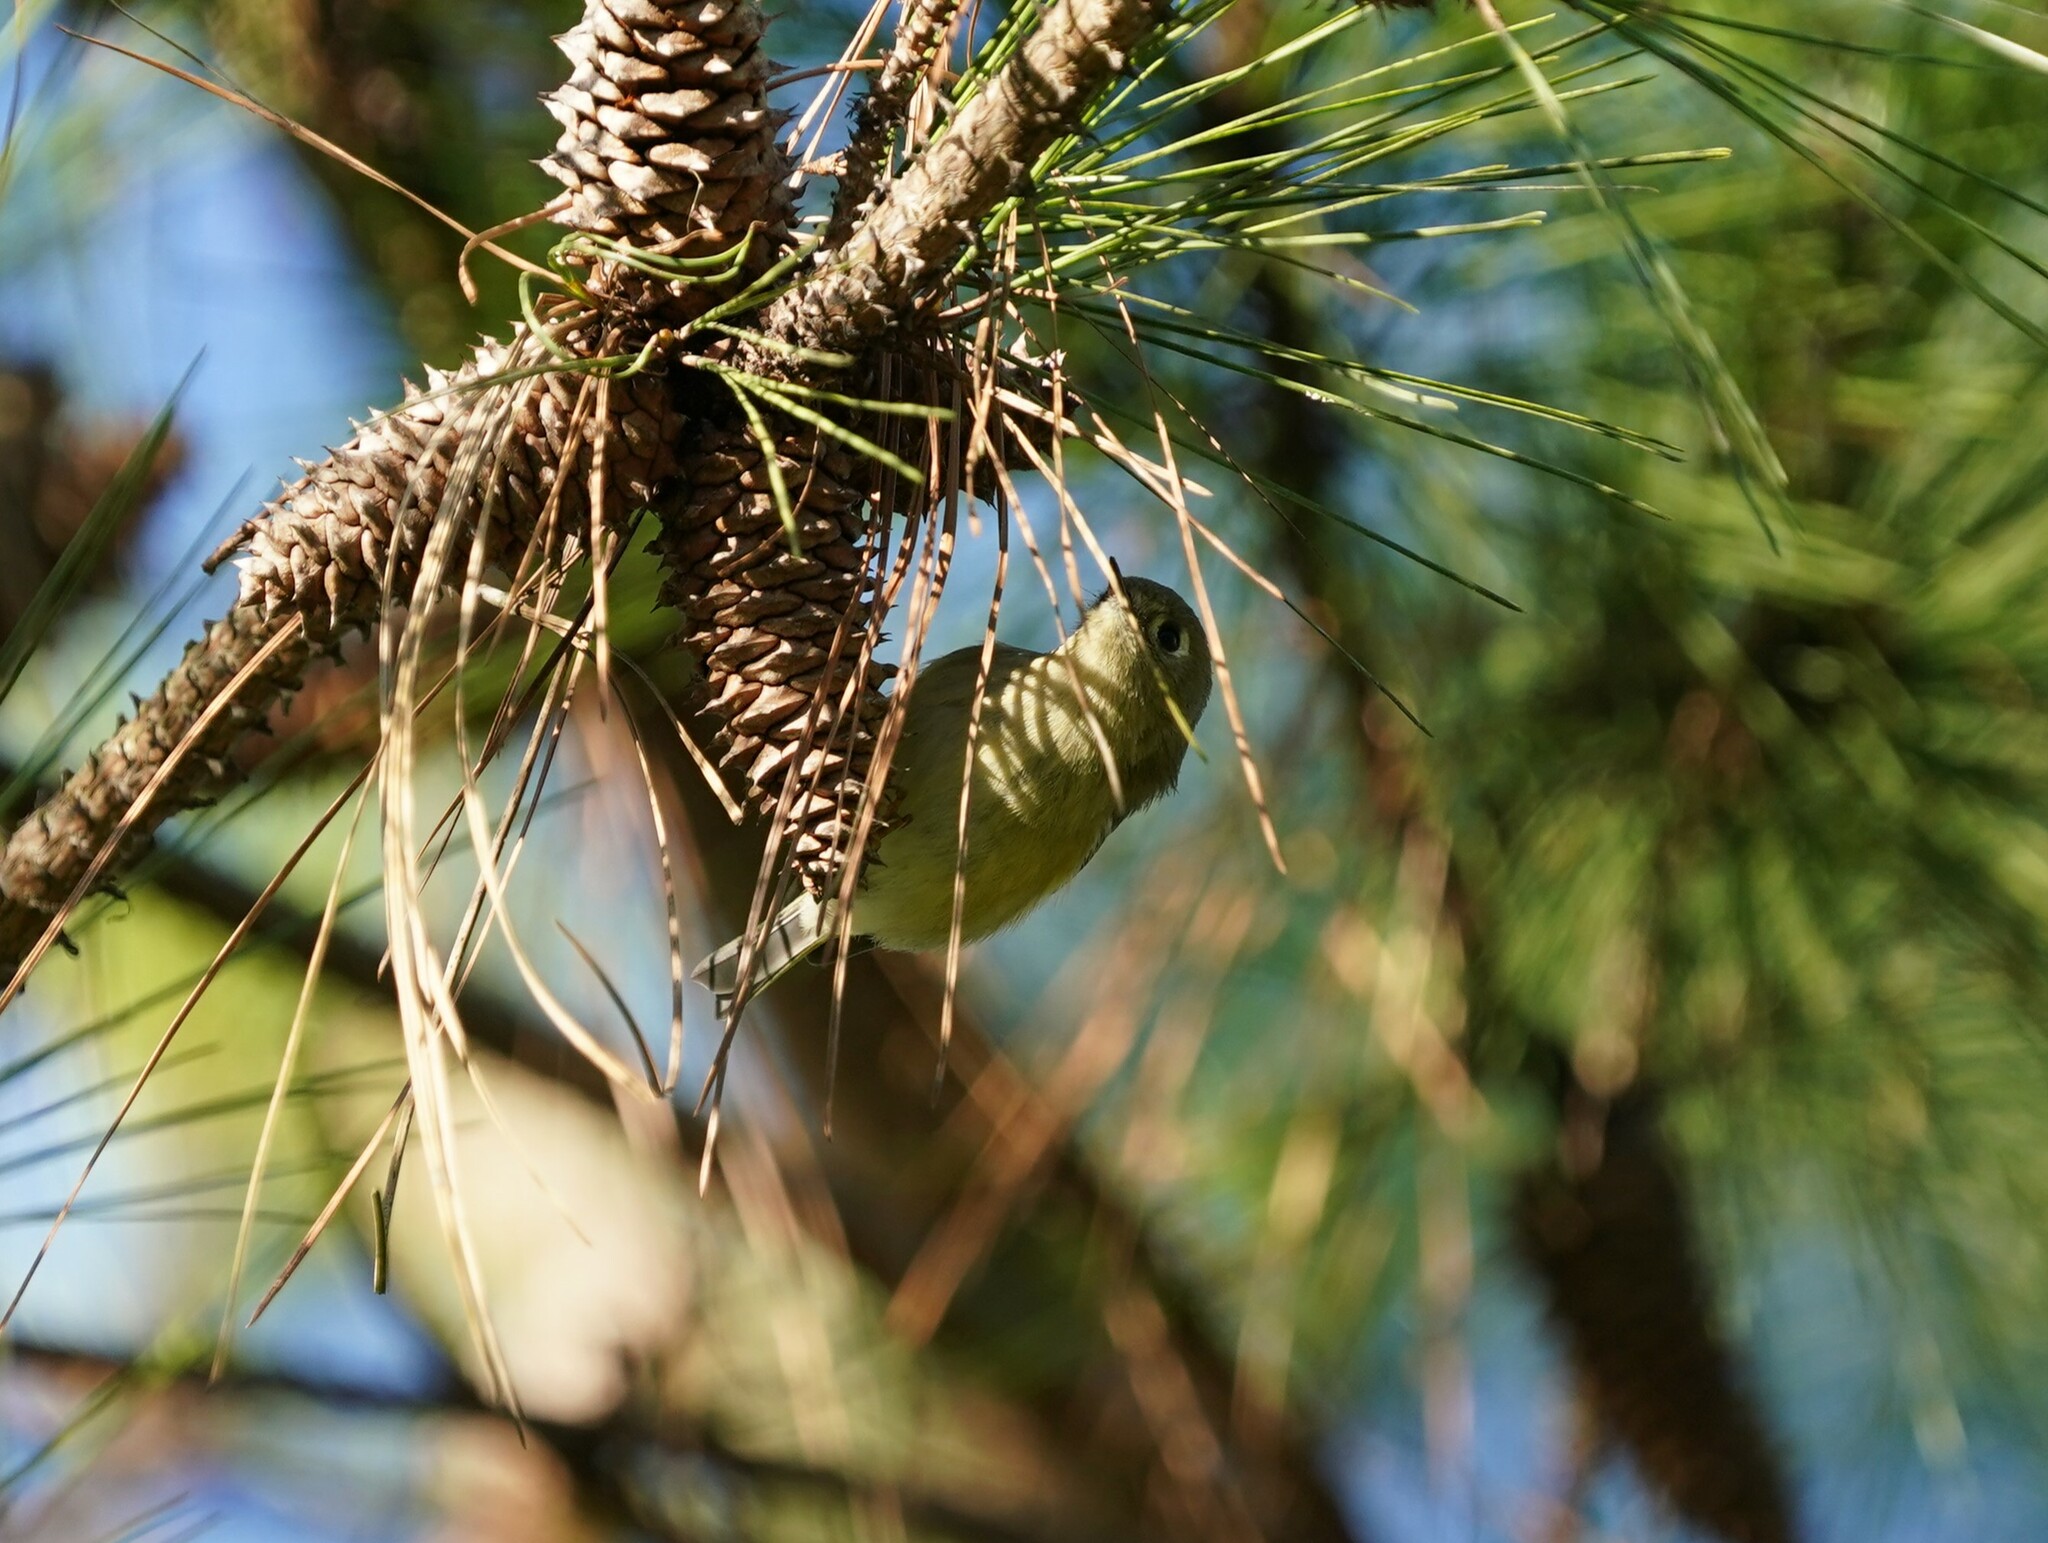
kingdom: Animalia
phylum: Chordata
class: Aves
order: Passeriformes
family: Regulidae
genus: Regulus
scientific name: Regulus calendula
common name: Ruby-crowned kinglet
